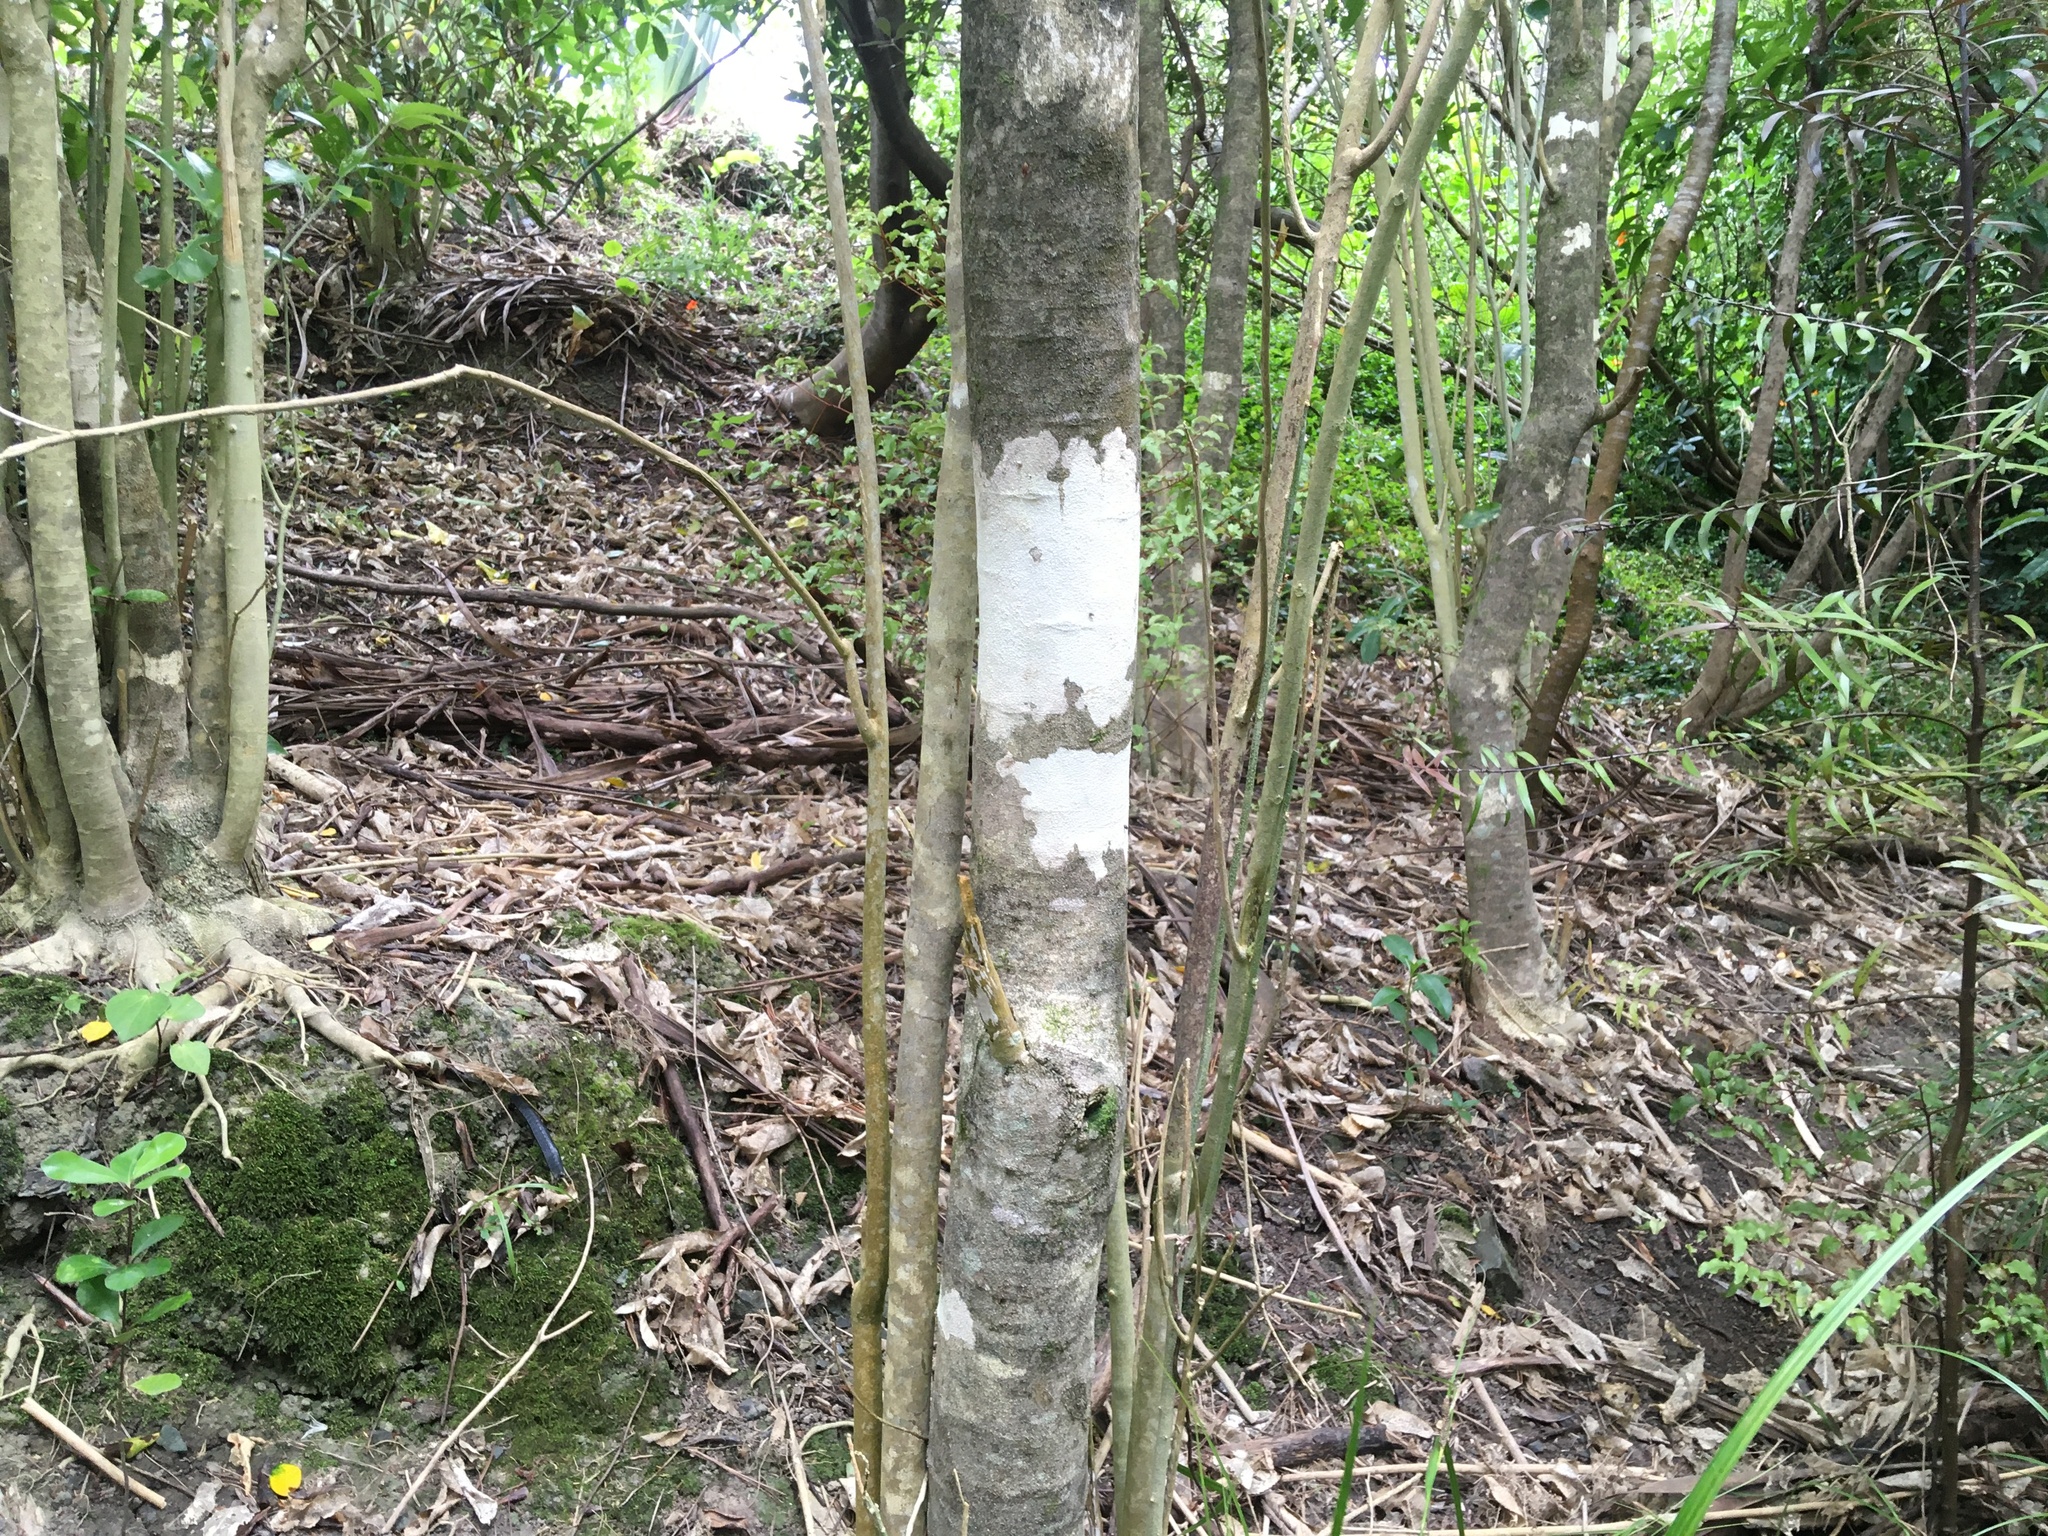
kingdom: Plantae
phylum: Tracheophyta
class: Liliopsida
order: Commelinales
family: Commelinaceae
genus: Tradescantia
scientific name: Tradescantia fluminensis
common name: Wandering-jew
